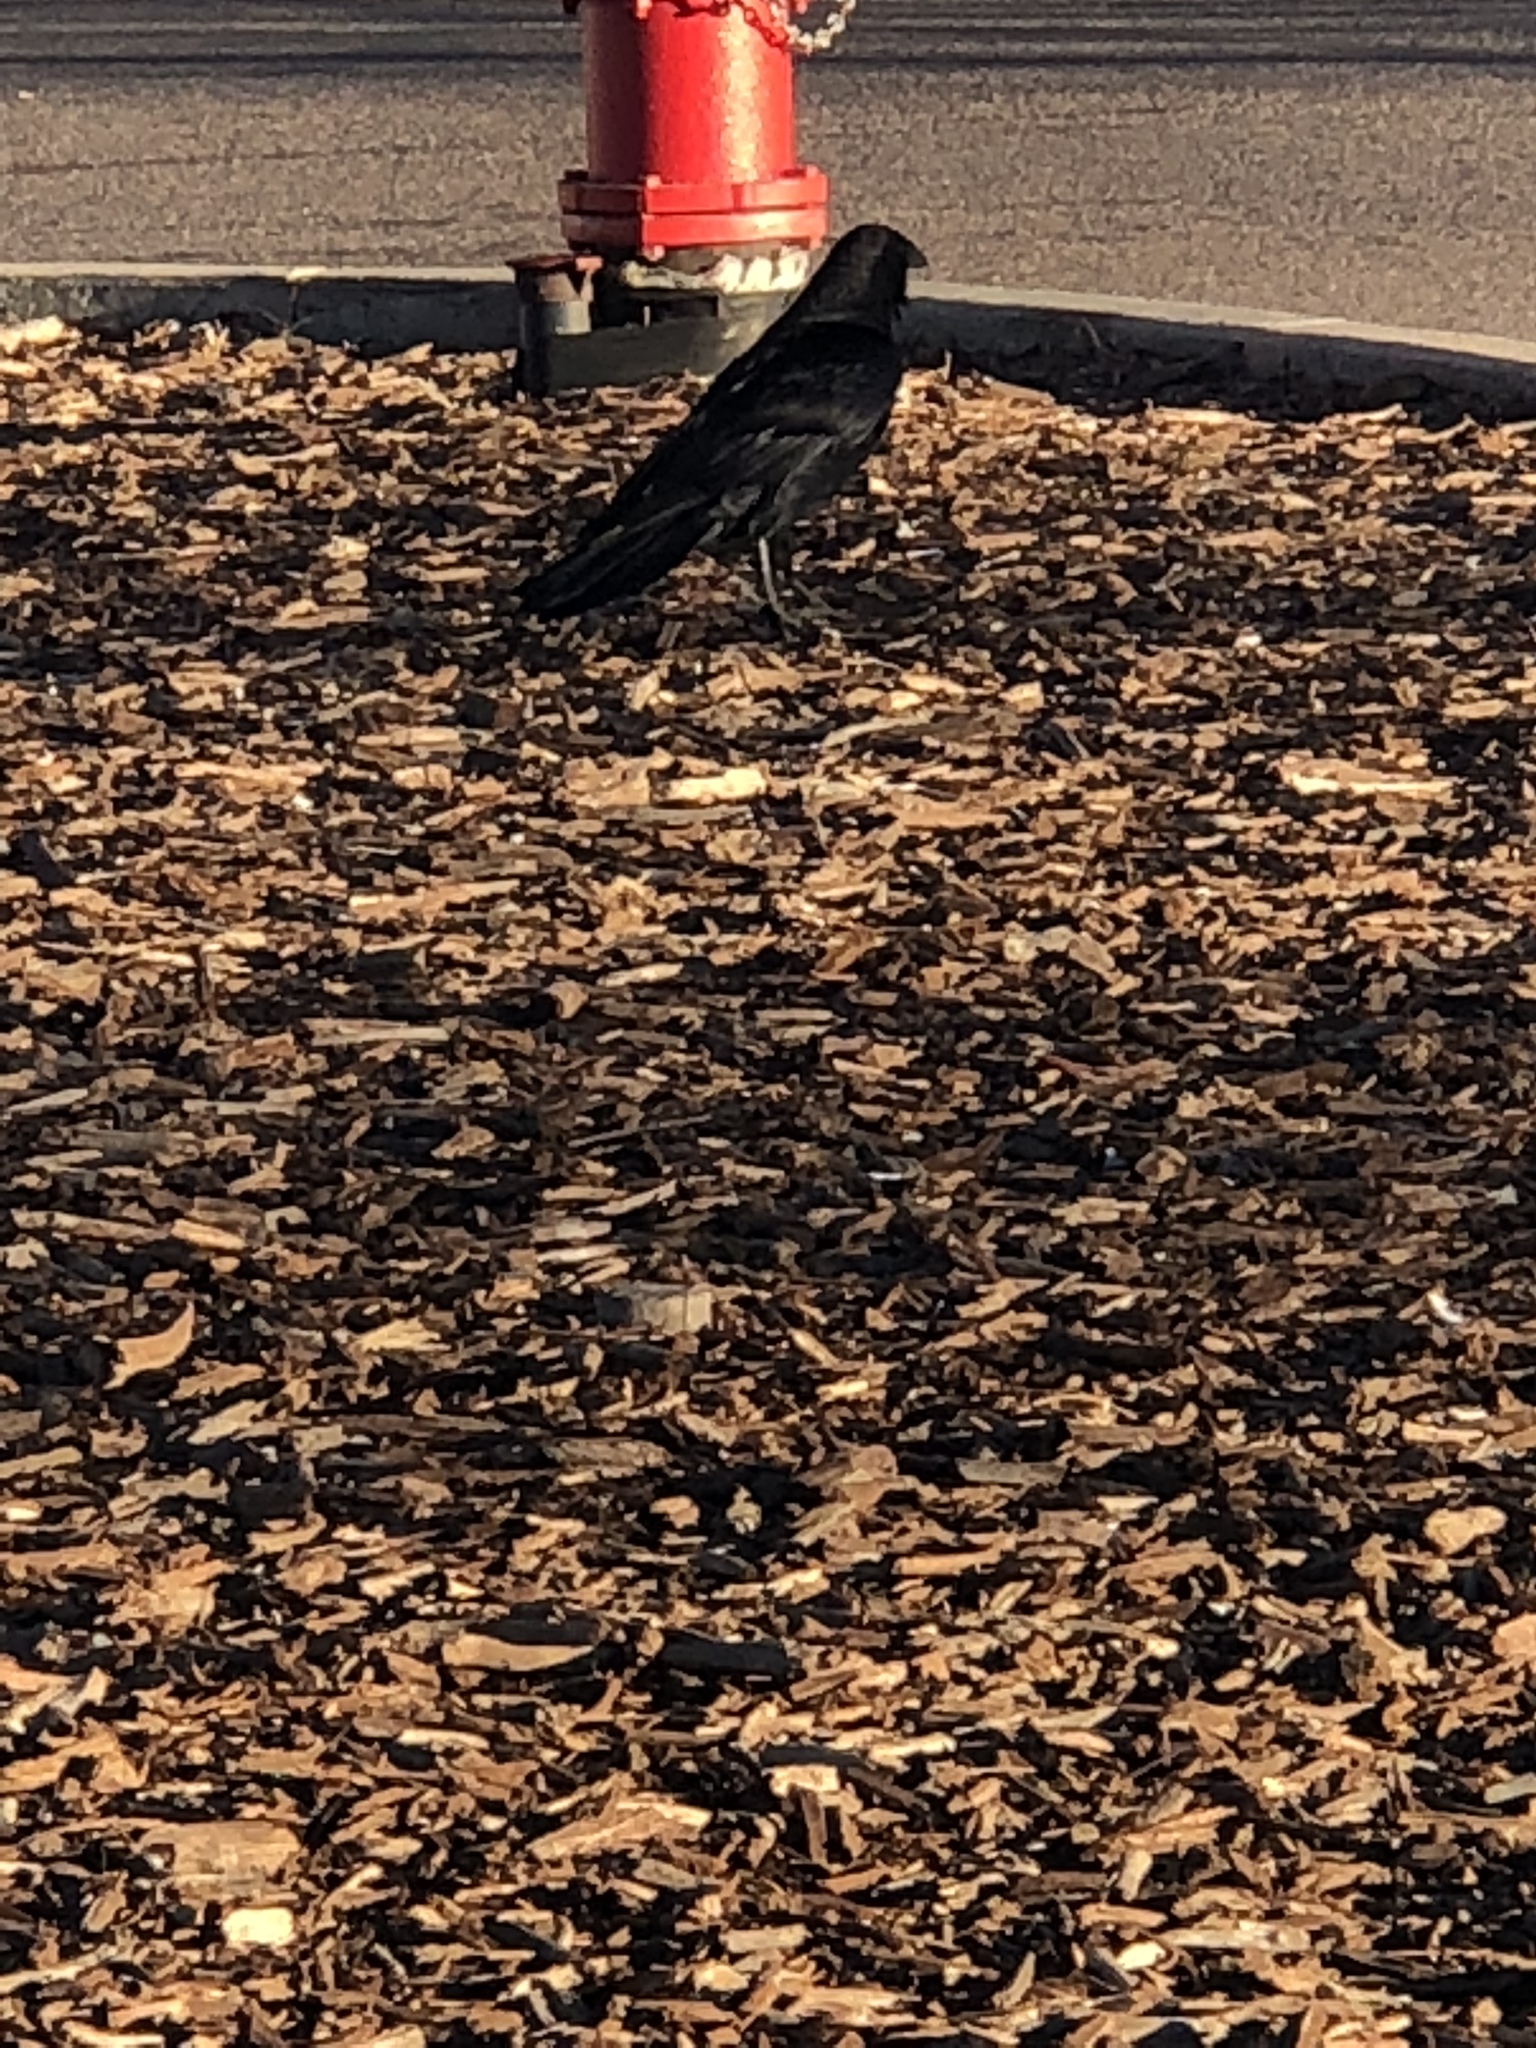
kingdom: Animalia
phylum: Chordata
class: Aves
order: Passeriformes
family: Corvidae
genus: Corvus
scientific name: Corvus corax
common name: Common raven
